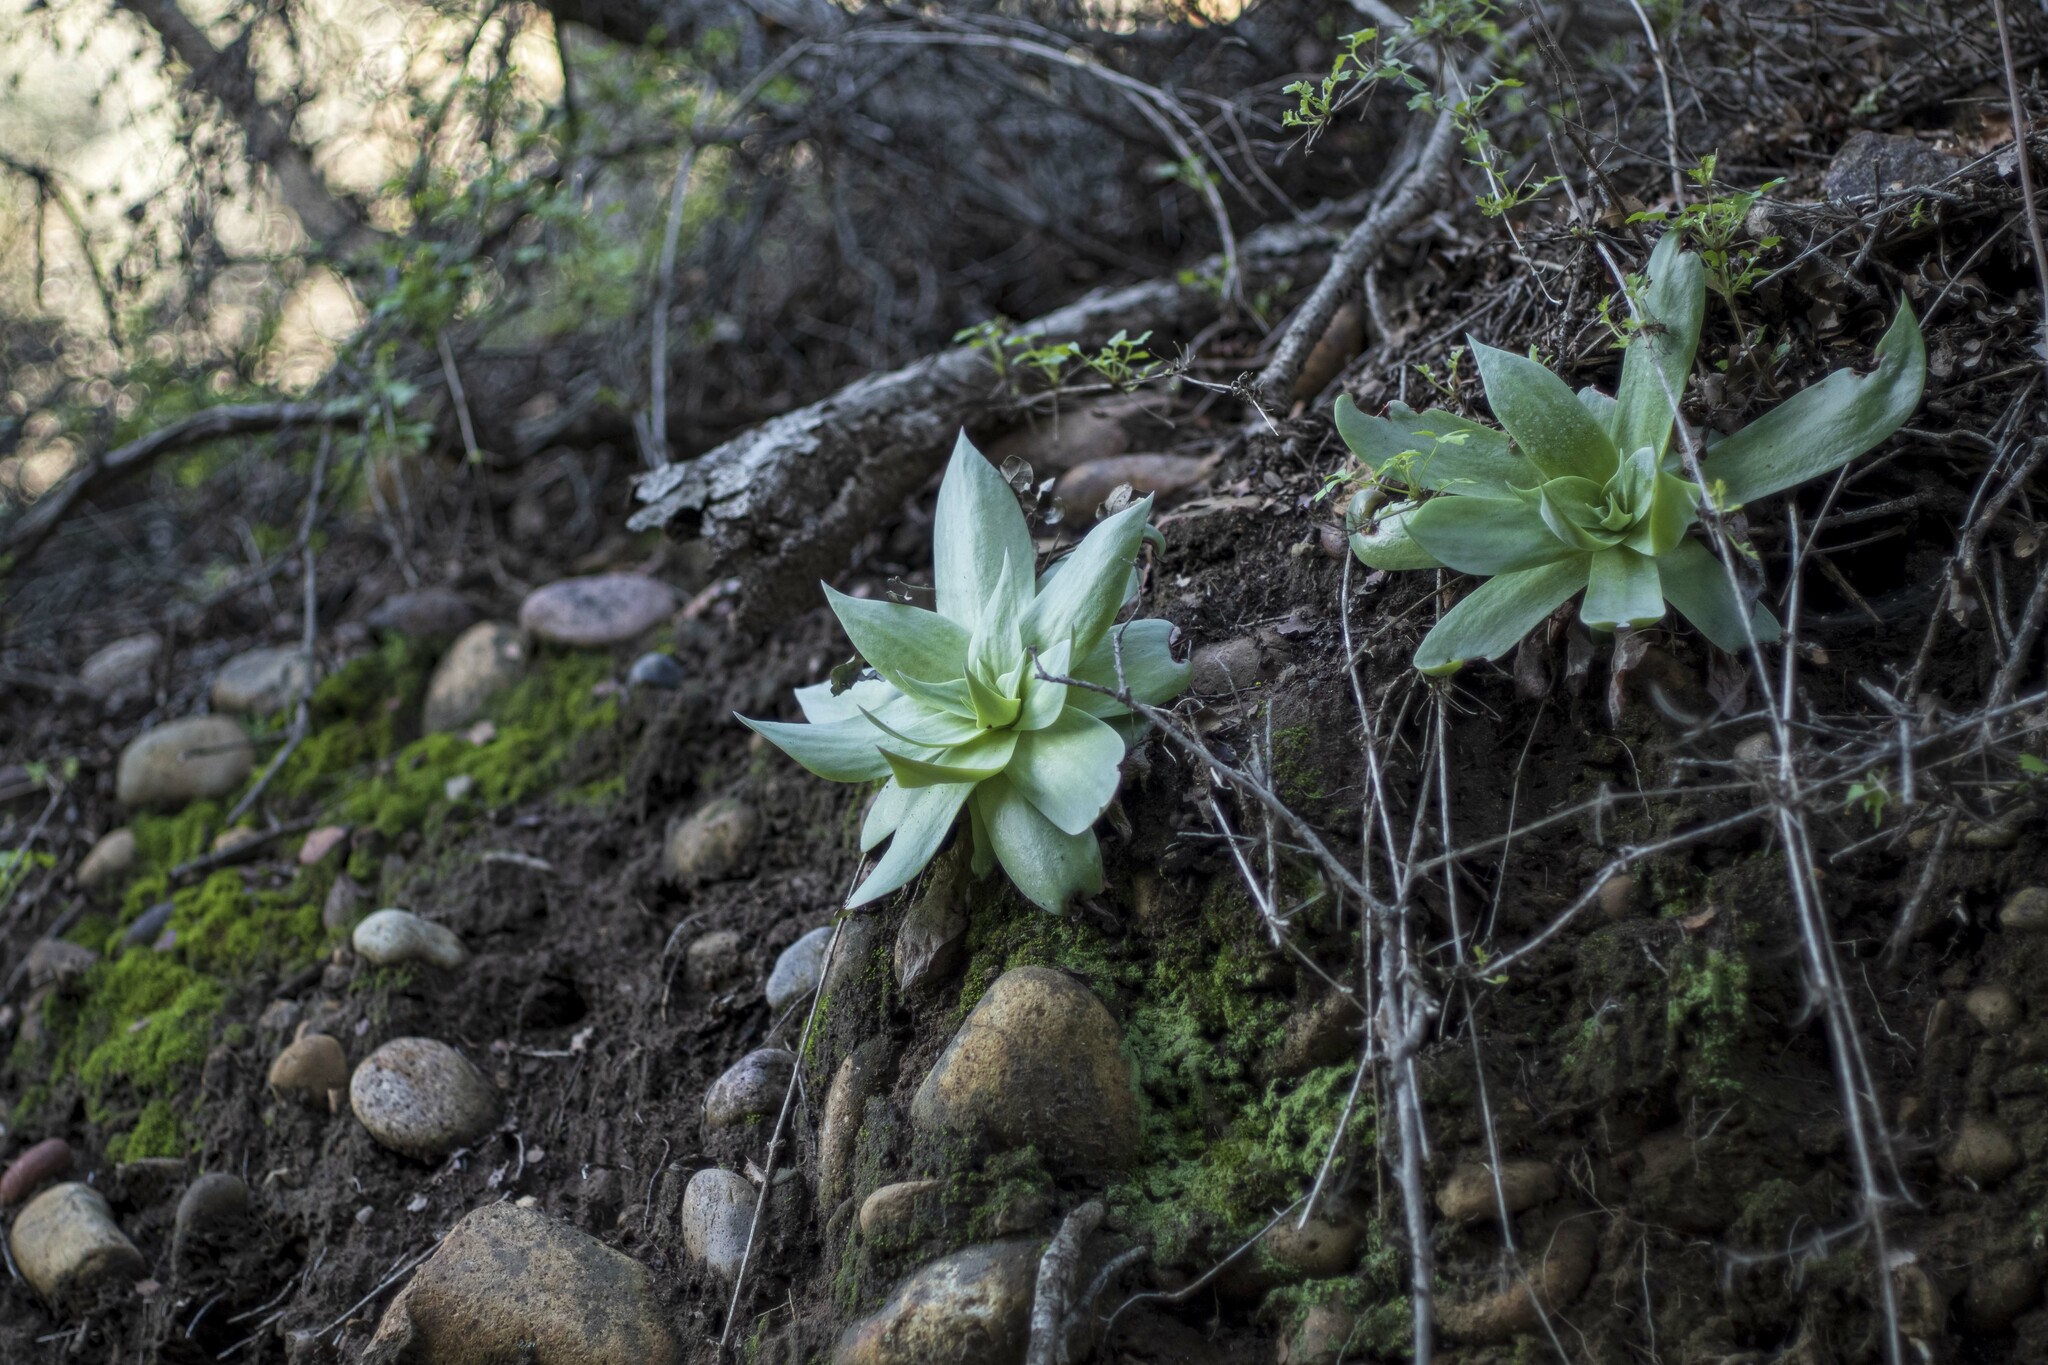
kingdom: Plantae
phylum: Tracheophyta
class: Magnoliopsida
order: Saxifragales
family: Crassulaceae
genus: Dudleya
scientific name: Dudleya pulverulenta
